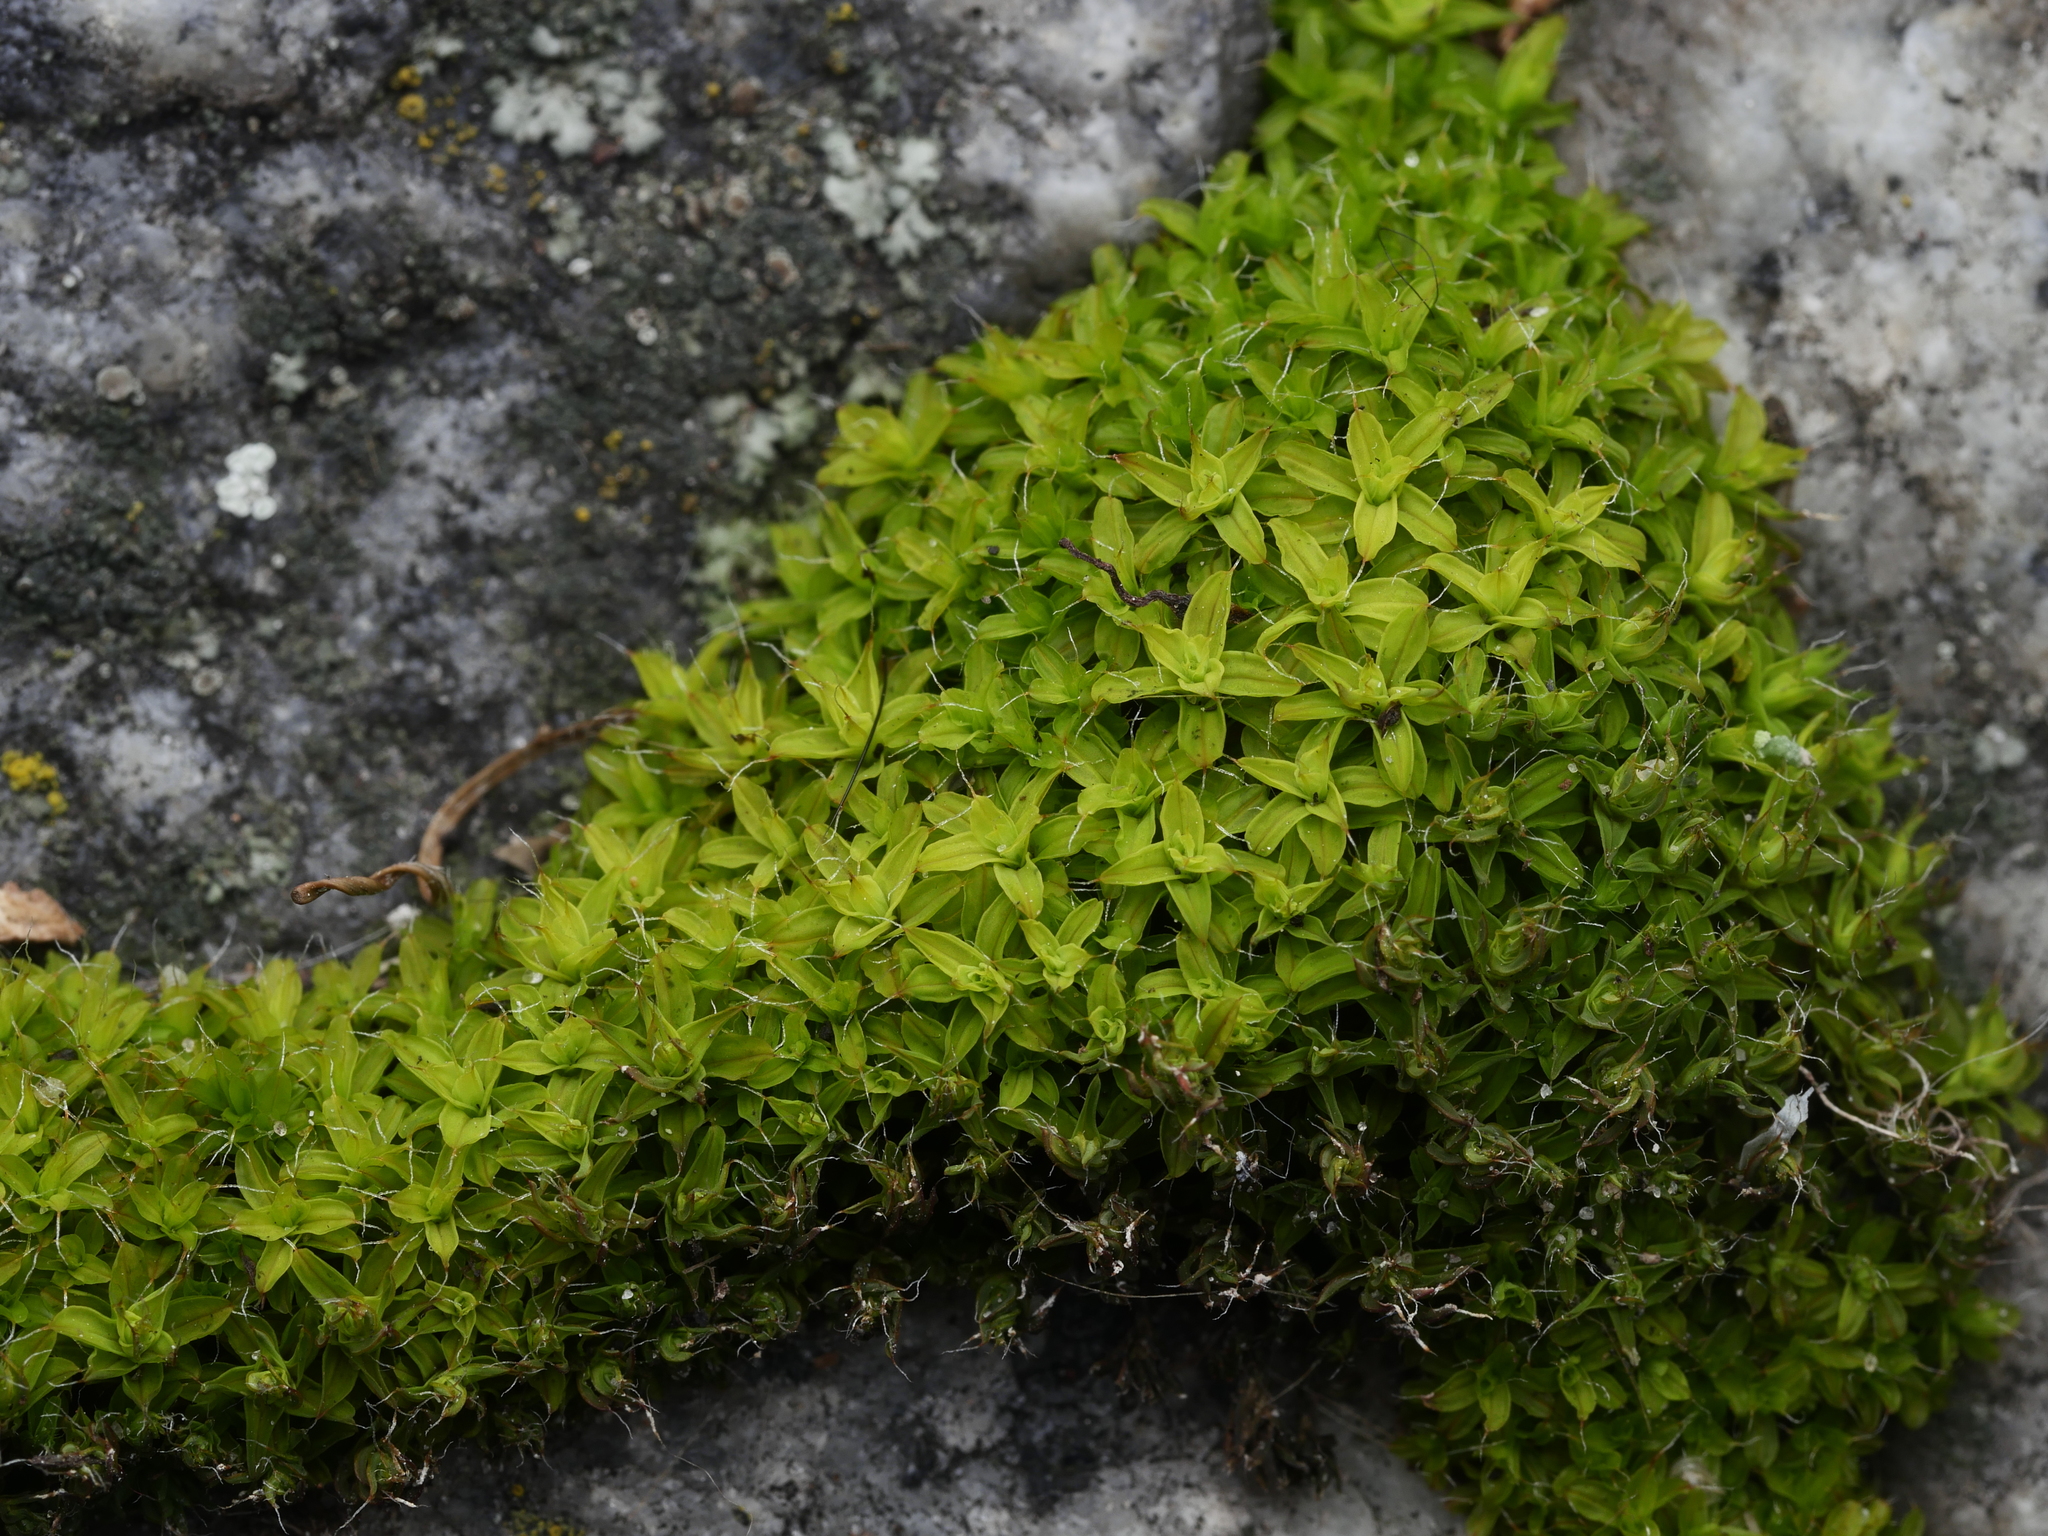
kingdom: Plantae
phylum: Bryophyta
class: Bryopsida
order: Pottiales
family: Pottiaceae
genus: Syntrichia
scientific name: Syntrichia ruralis
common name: Sidewalk screw moss
